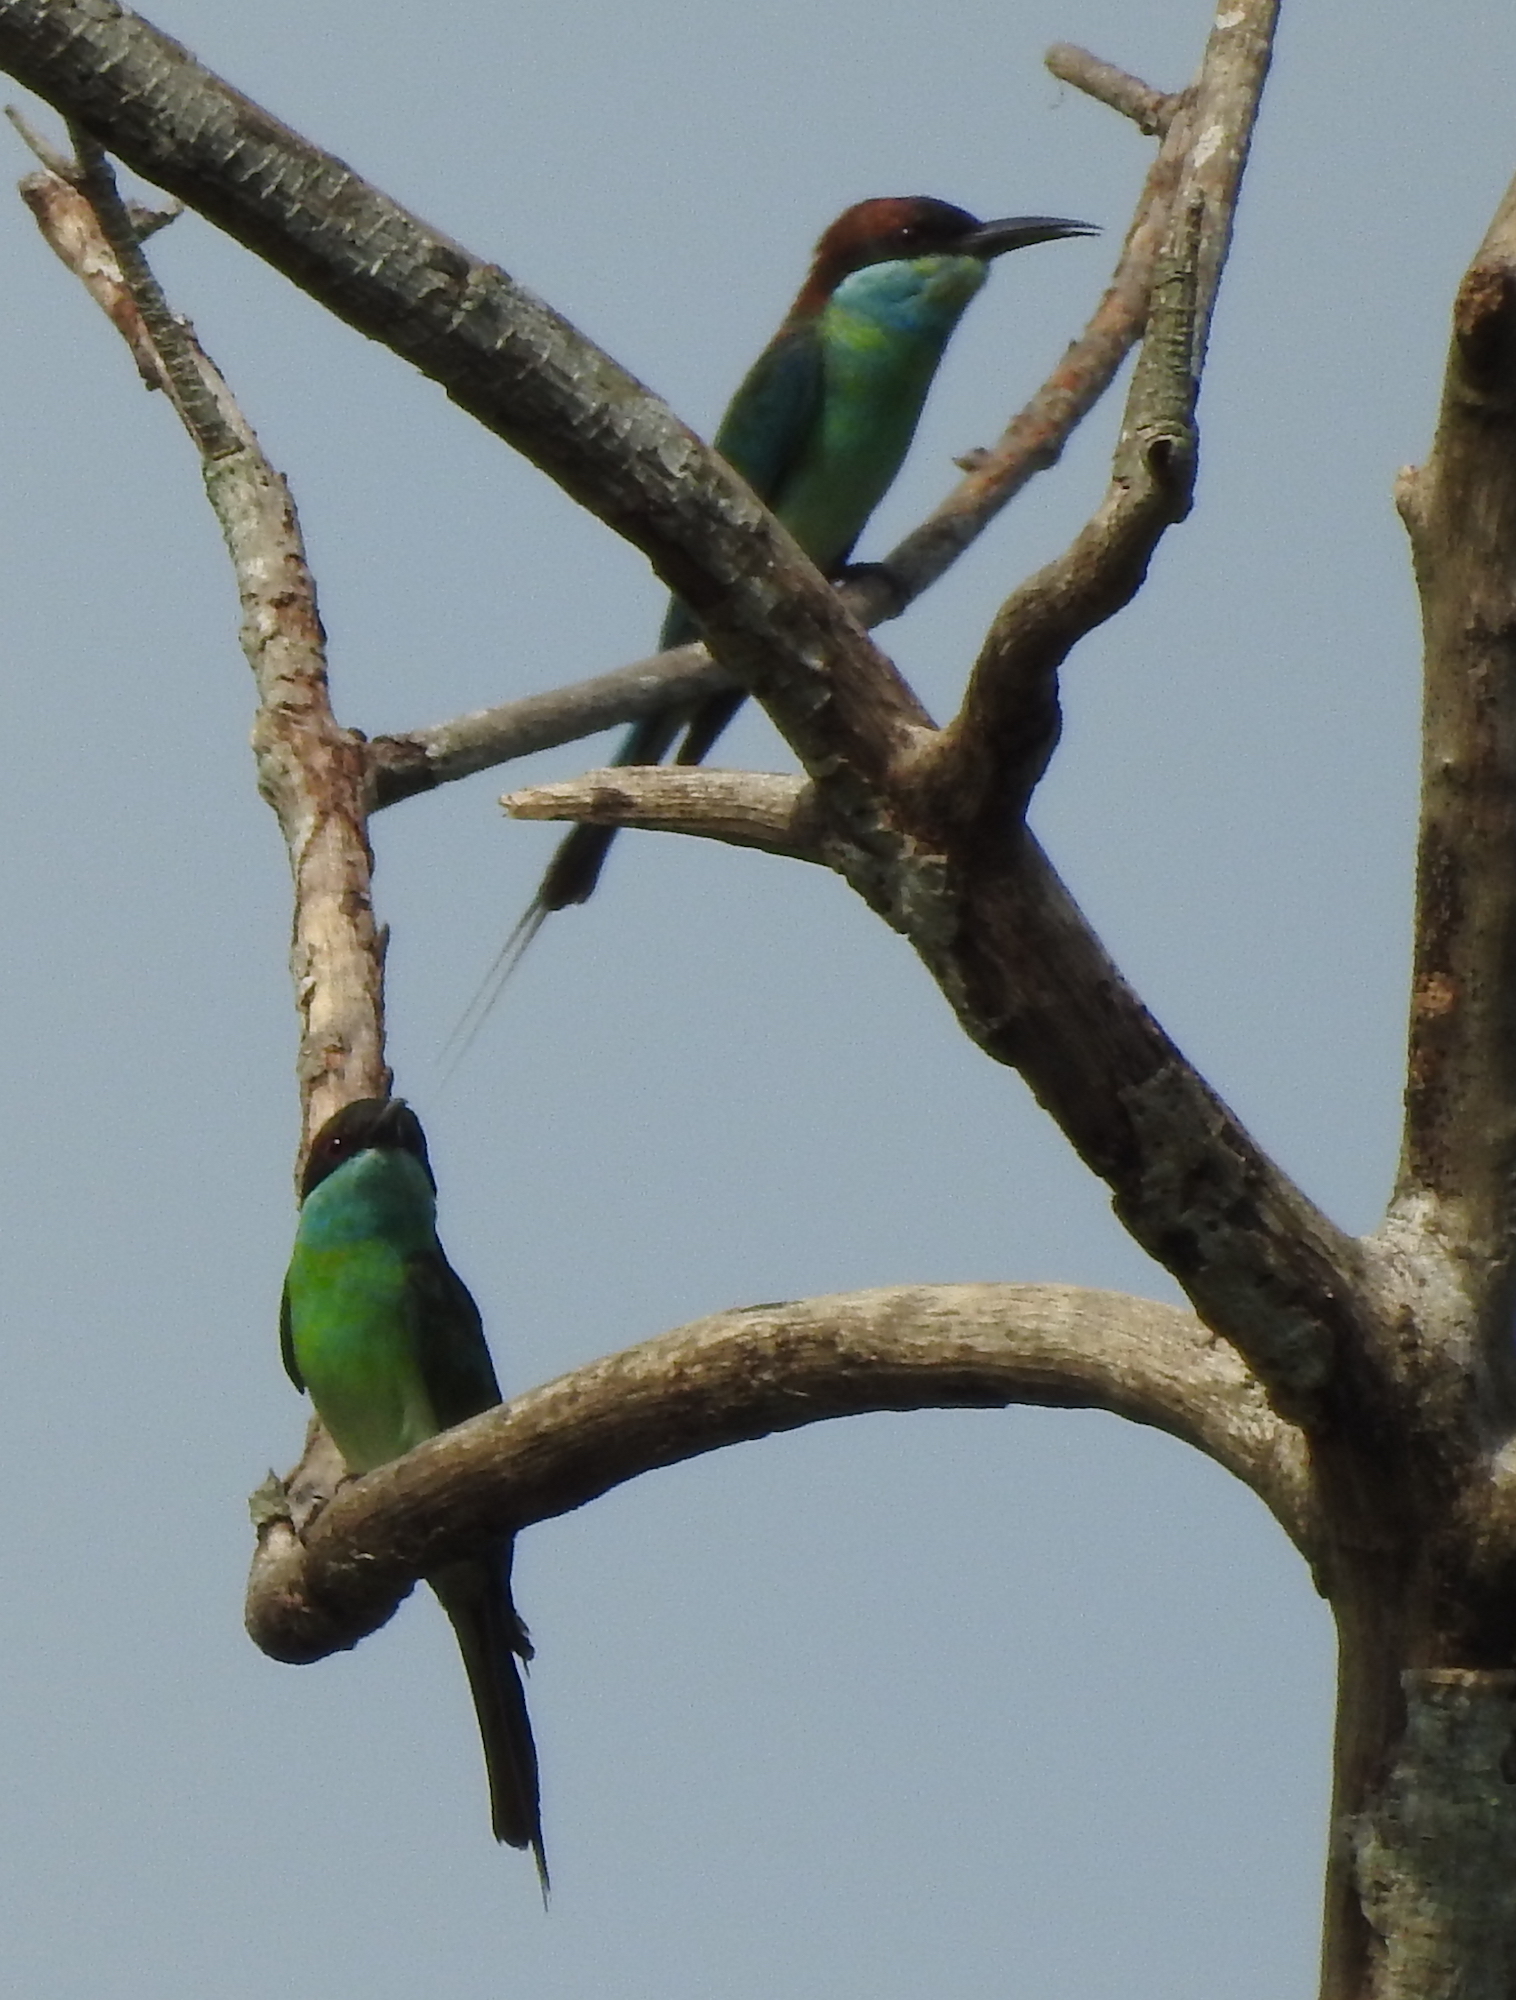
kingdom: Animalia
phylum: Chordata
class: Aves
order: Coraciiformes
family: Meropidae
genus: Merops
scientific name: Merops viridis
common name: Blue-throated bee-eater
